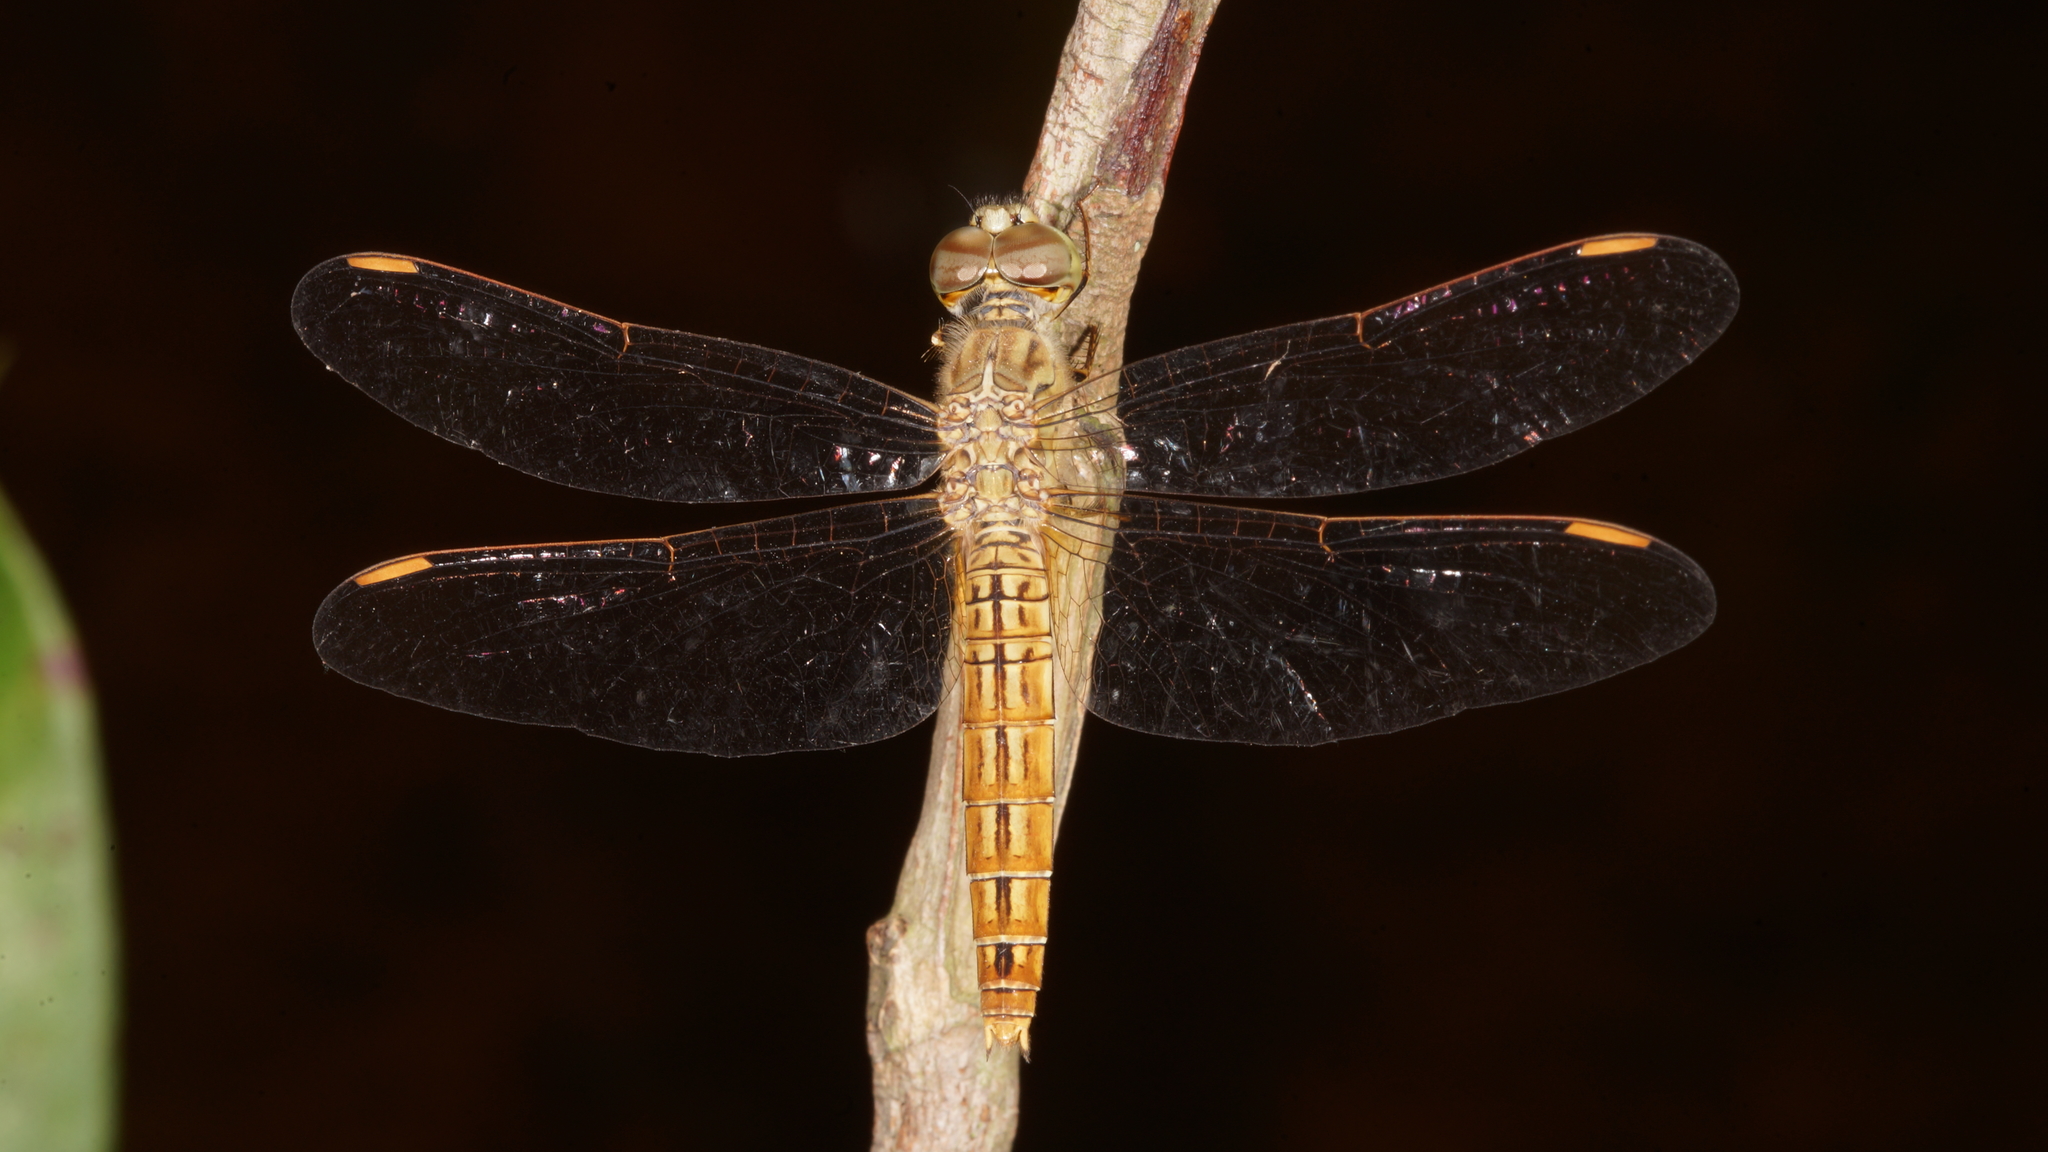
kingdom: Animalia
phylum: Arthropoda
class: Insecta
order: Odonata
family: Libellulidae
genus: Brachythemis
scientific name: Brachythemis contaminata
